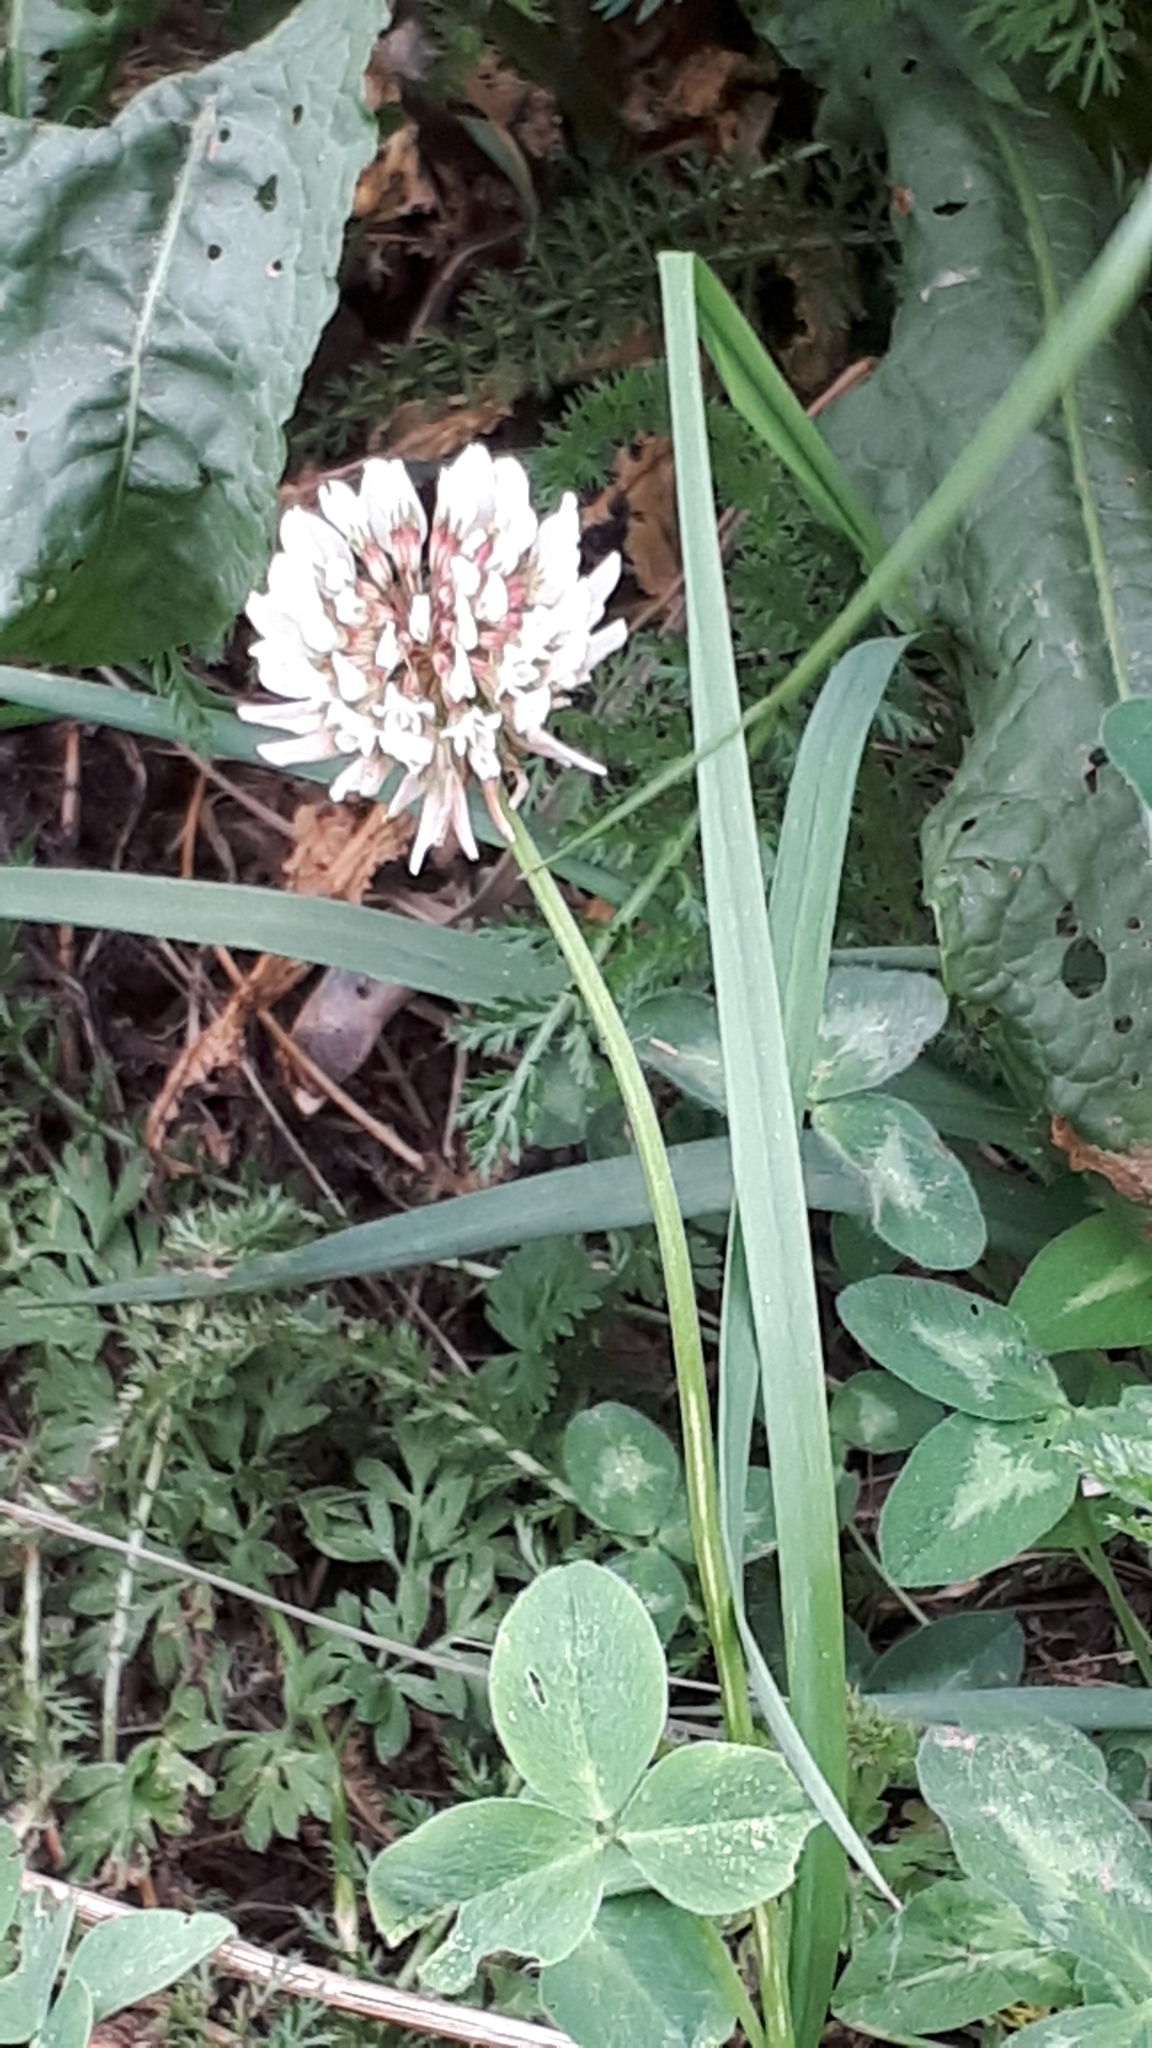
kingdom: Plantae
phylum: Tracheophyta
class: Magnoliopsida
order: Fabales
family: Fabaceae
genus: Trifolium
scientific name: Trifolium repens
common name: White clover
